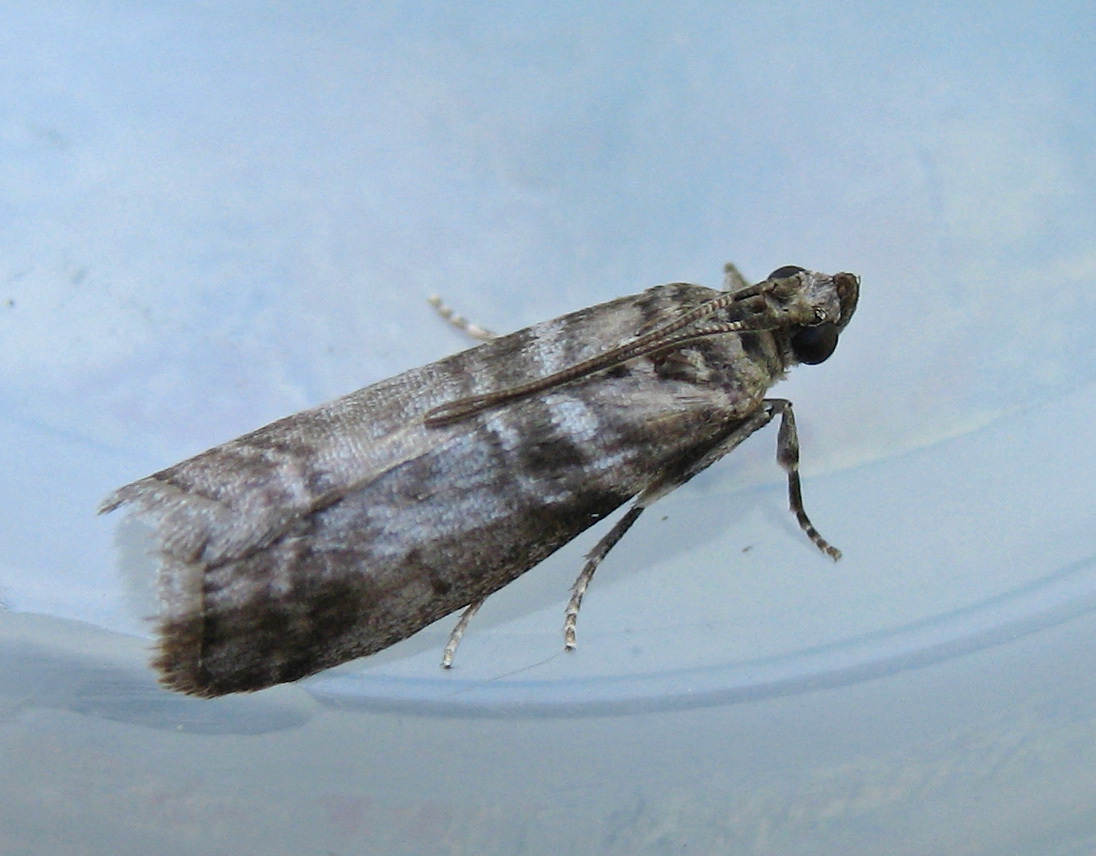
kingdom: Animalia
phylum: Arthropoda
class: Insecta
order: Lepidoptera
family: Pyralidae
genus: Sciota
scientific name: Sciota uvinella
